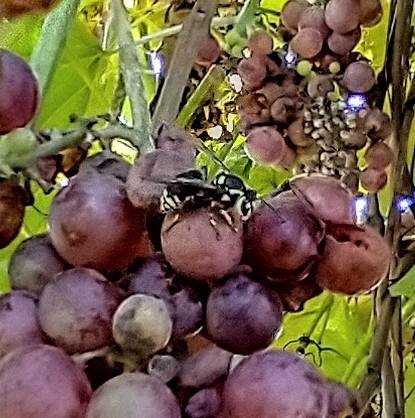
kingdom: Animalia
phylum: Arthropoda
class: Insecta
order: Hymenoptera
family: Vespidae
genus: Dolichovespula
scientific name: Dolichovespula maculata
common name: Bald-faced hornet
